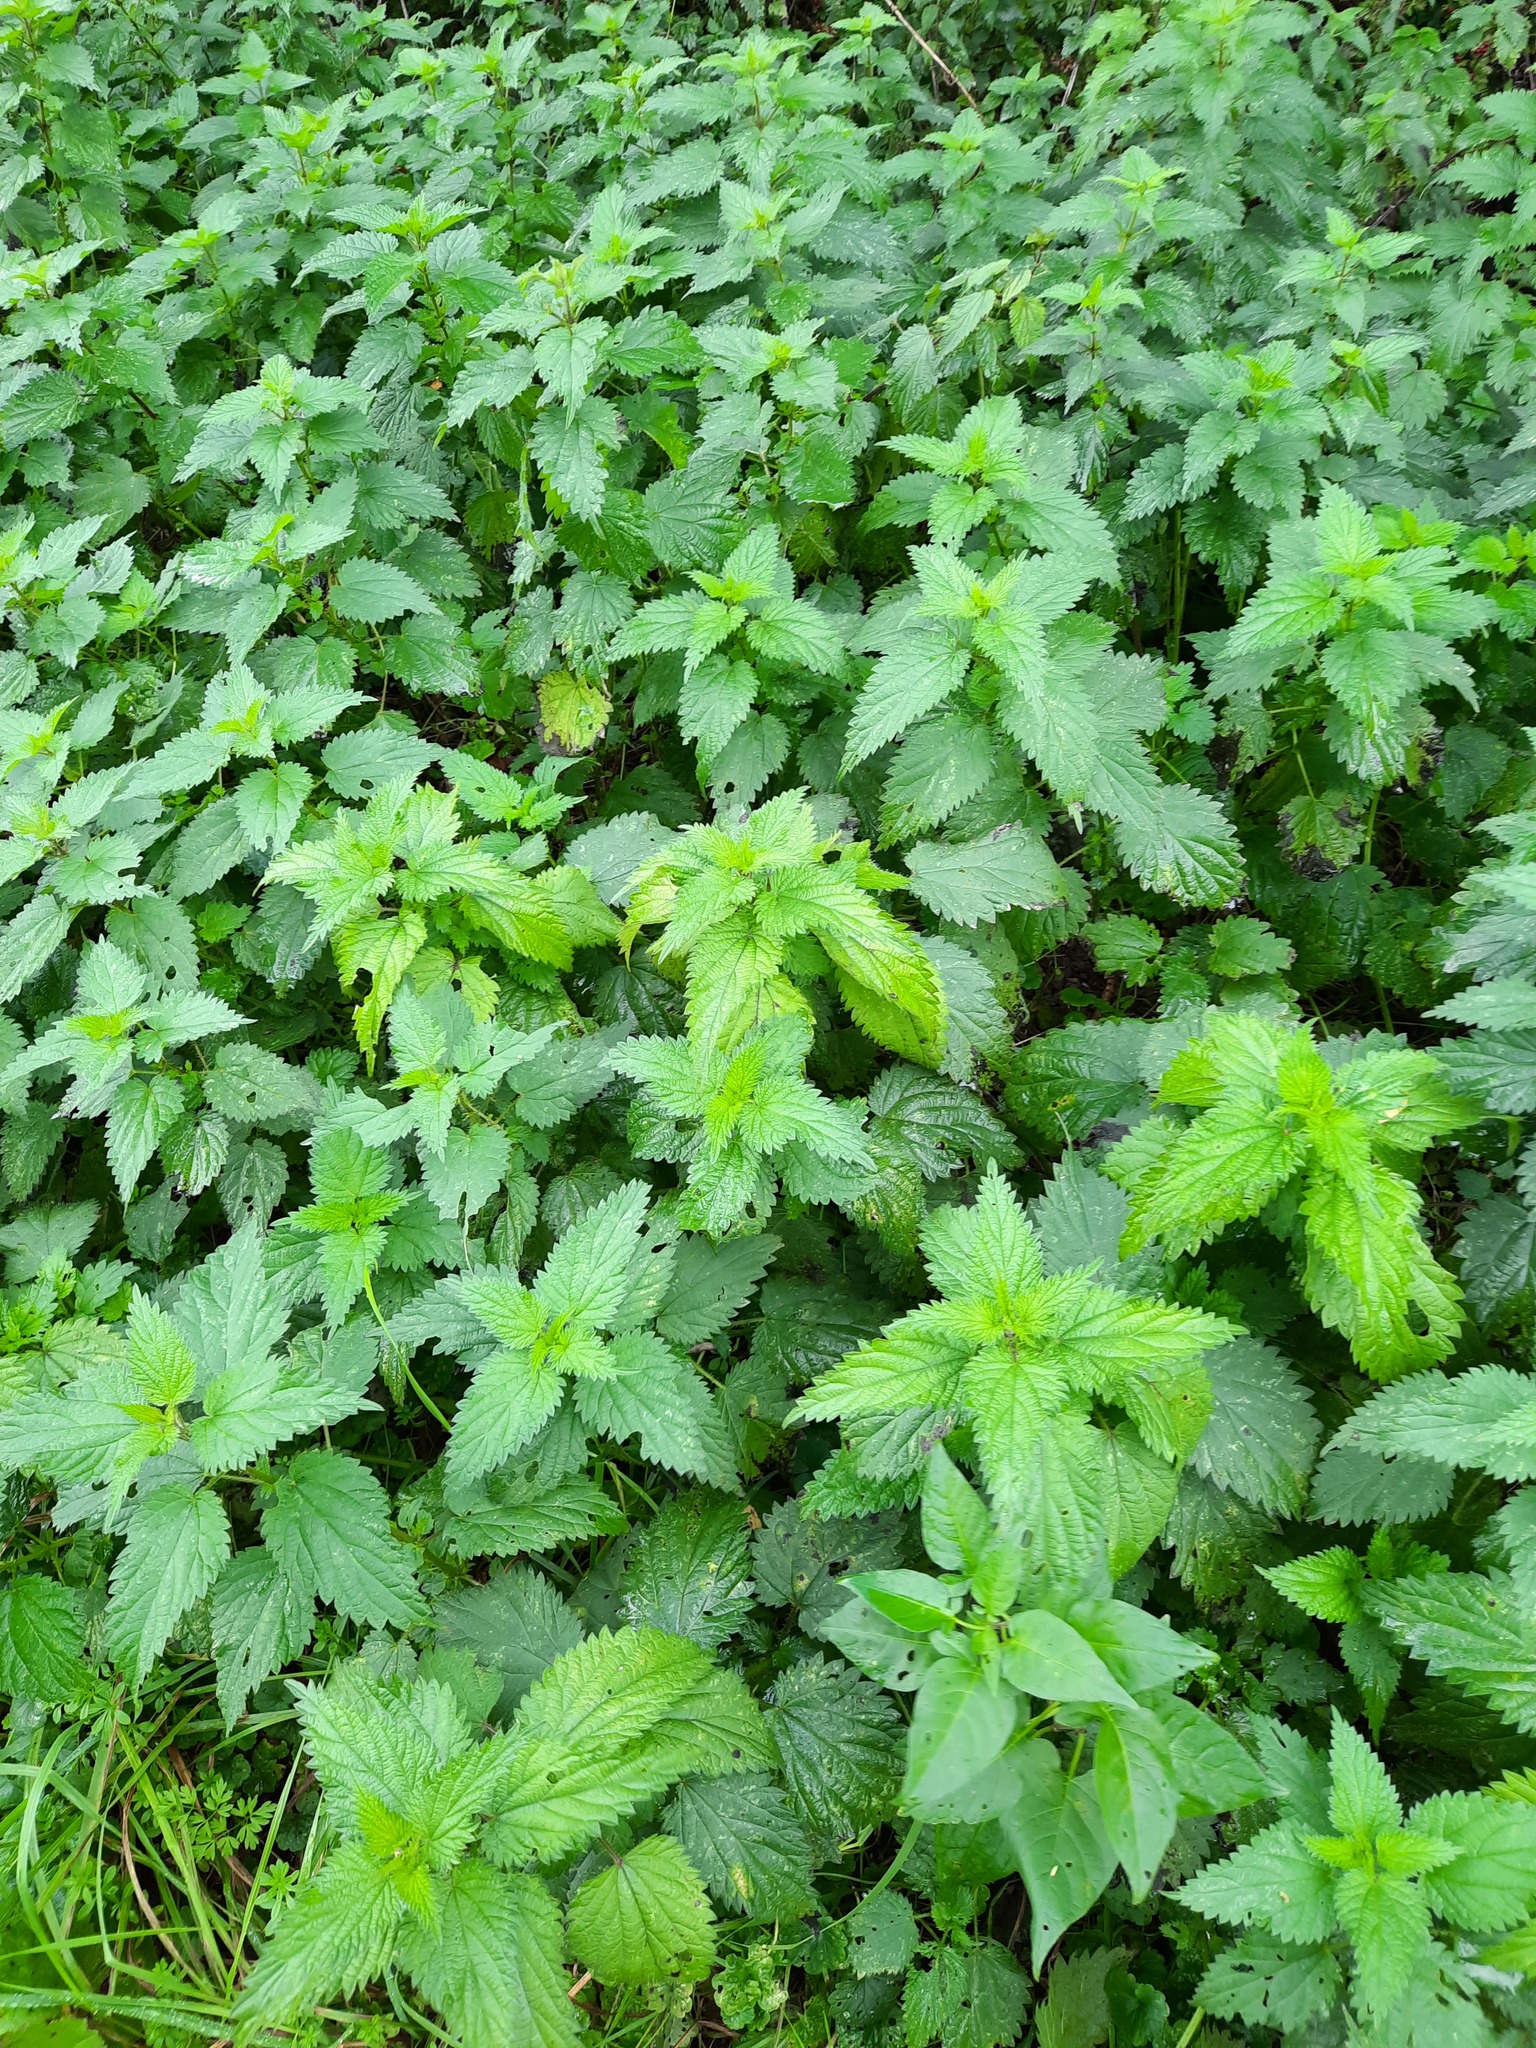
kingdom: Plantae
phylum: Tracheophyta
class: Magnoliopsida
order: Rosales
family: Urticaceae
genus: Urtica
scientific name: Urtica dioica
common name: Common nettle
